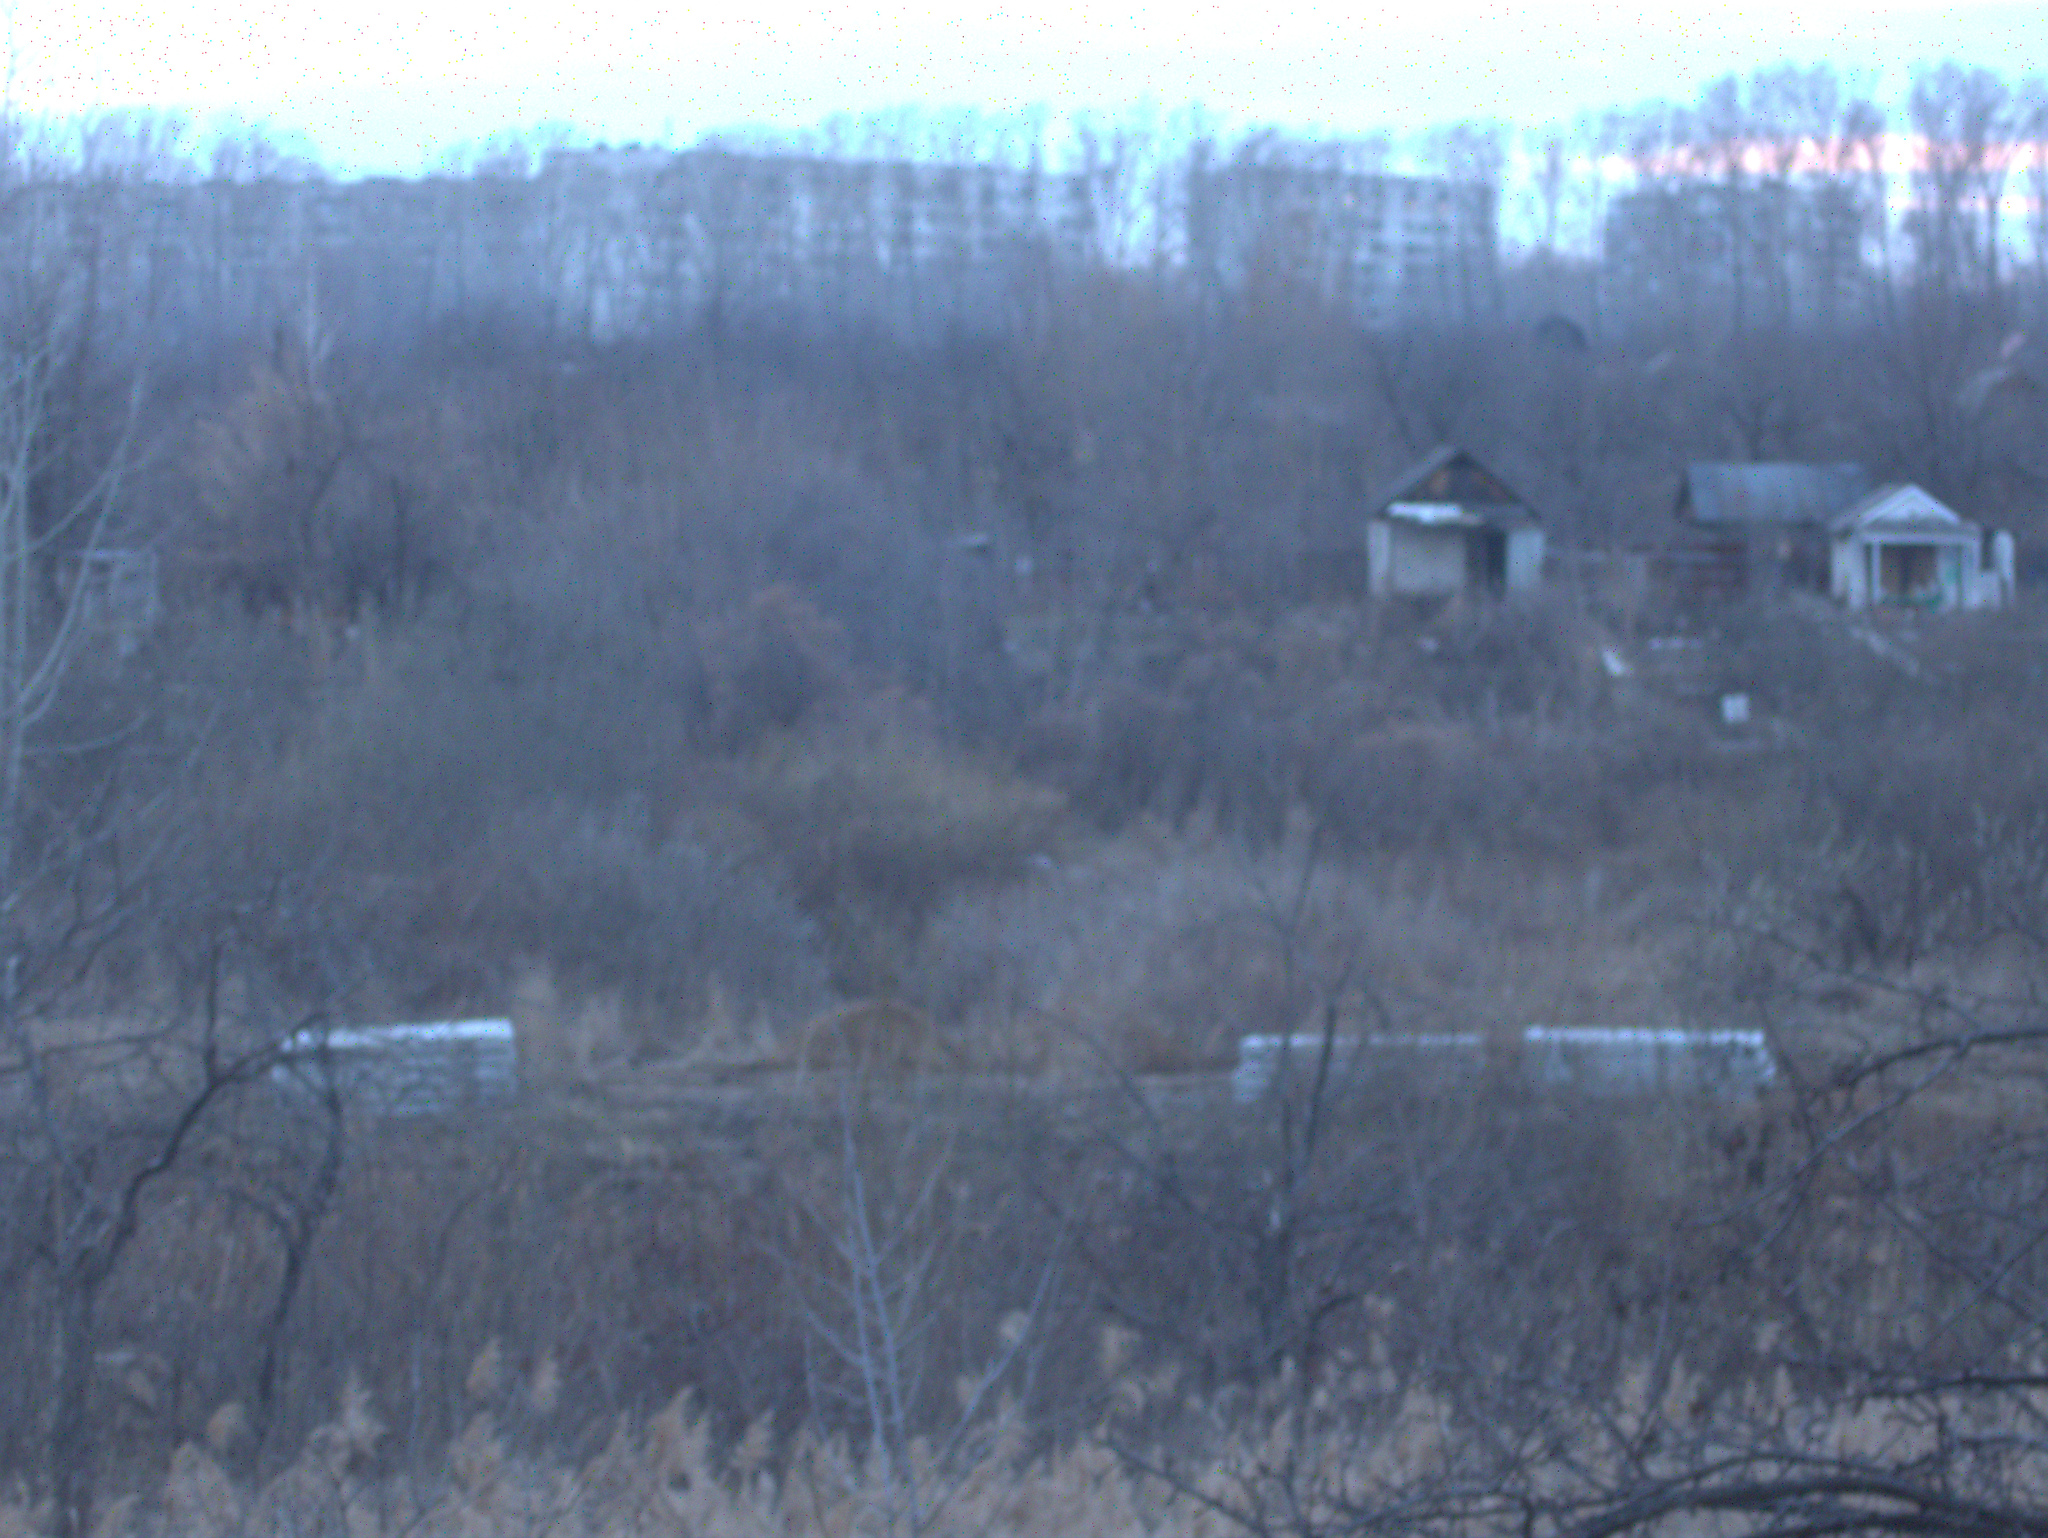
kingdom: Plantae
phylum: Tracheophyta
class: Liliopsida
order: Poales
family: Poaceae
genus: Phragmites
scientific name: Phragmites australis
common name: Common reed
